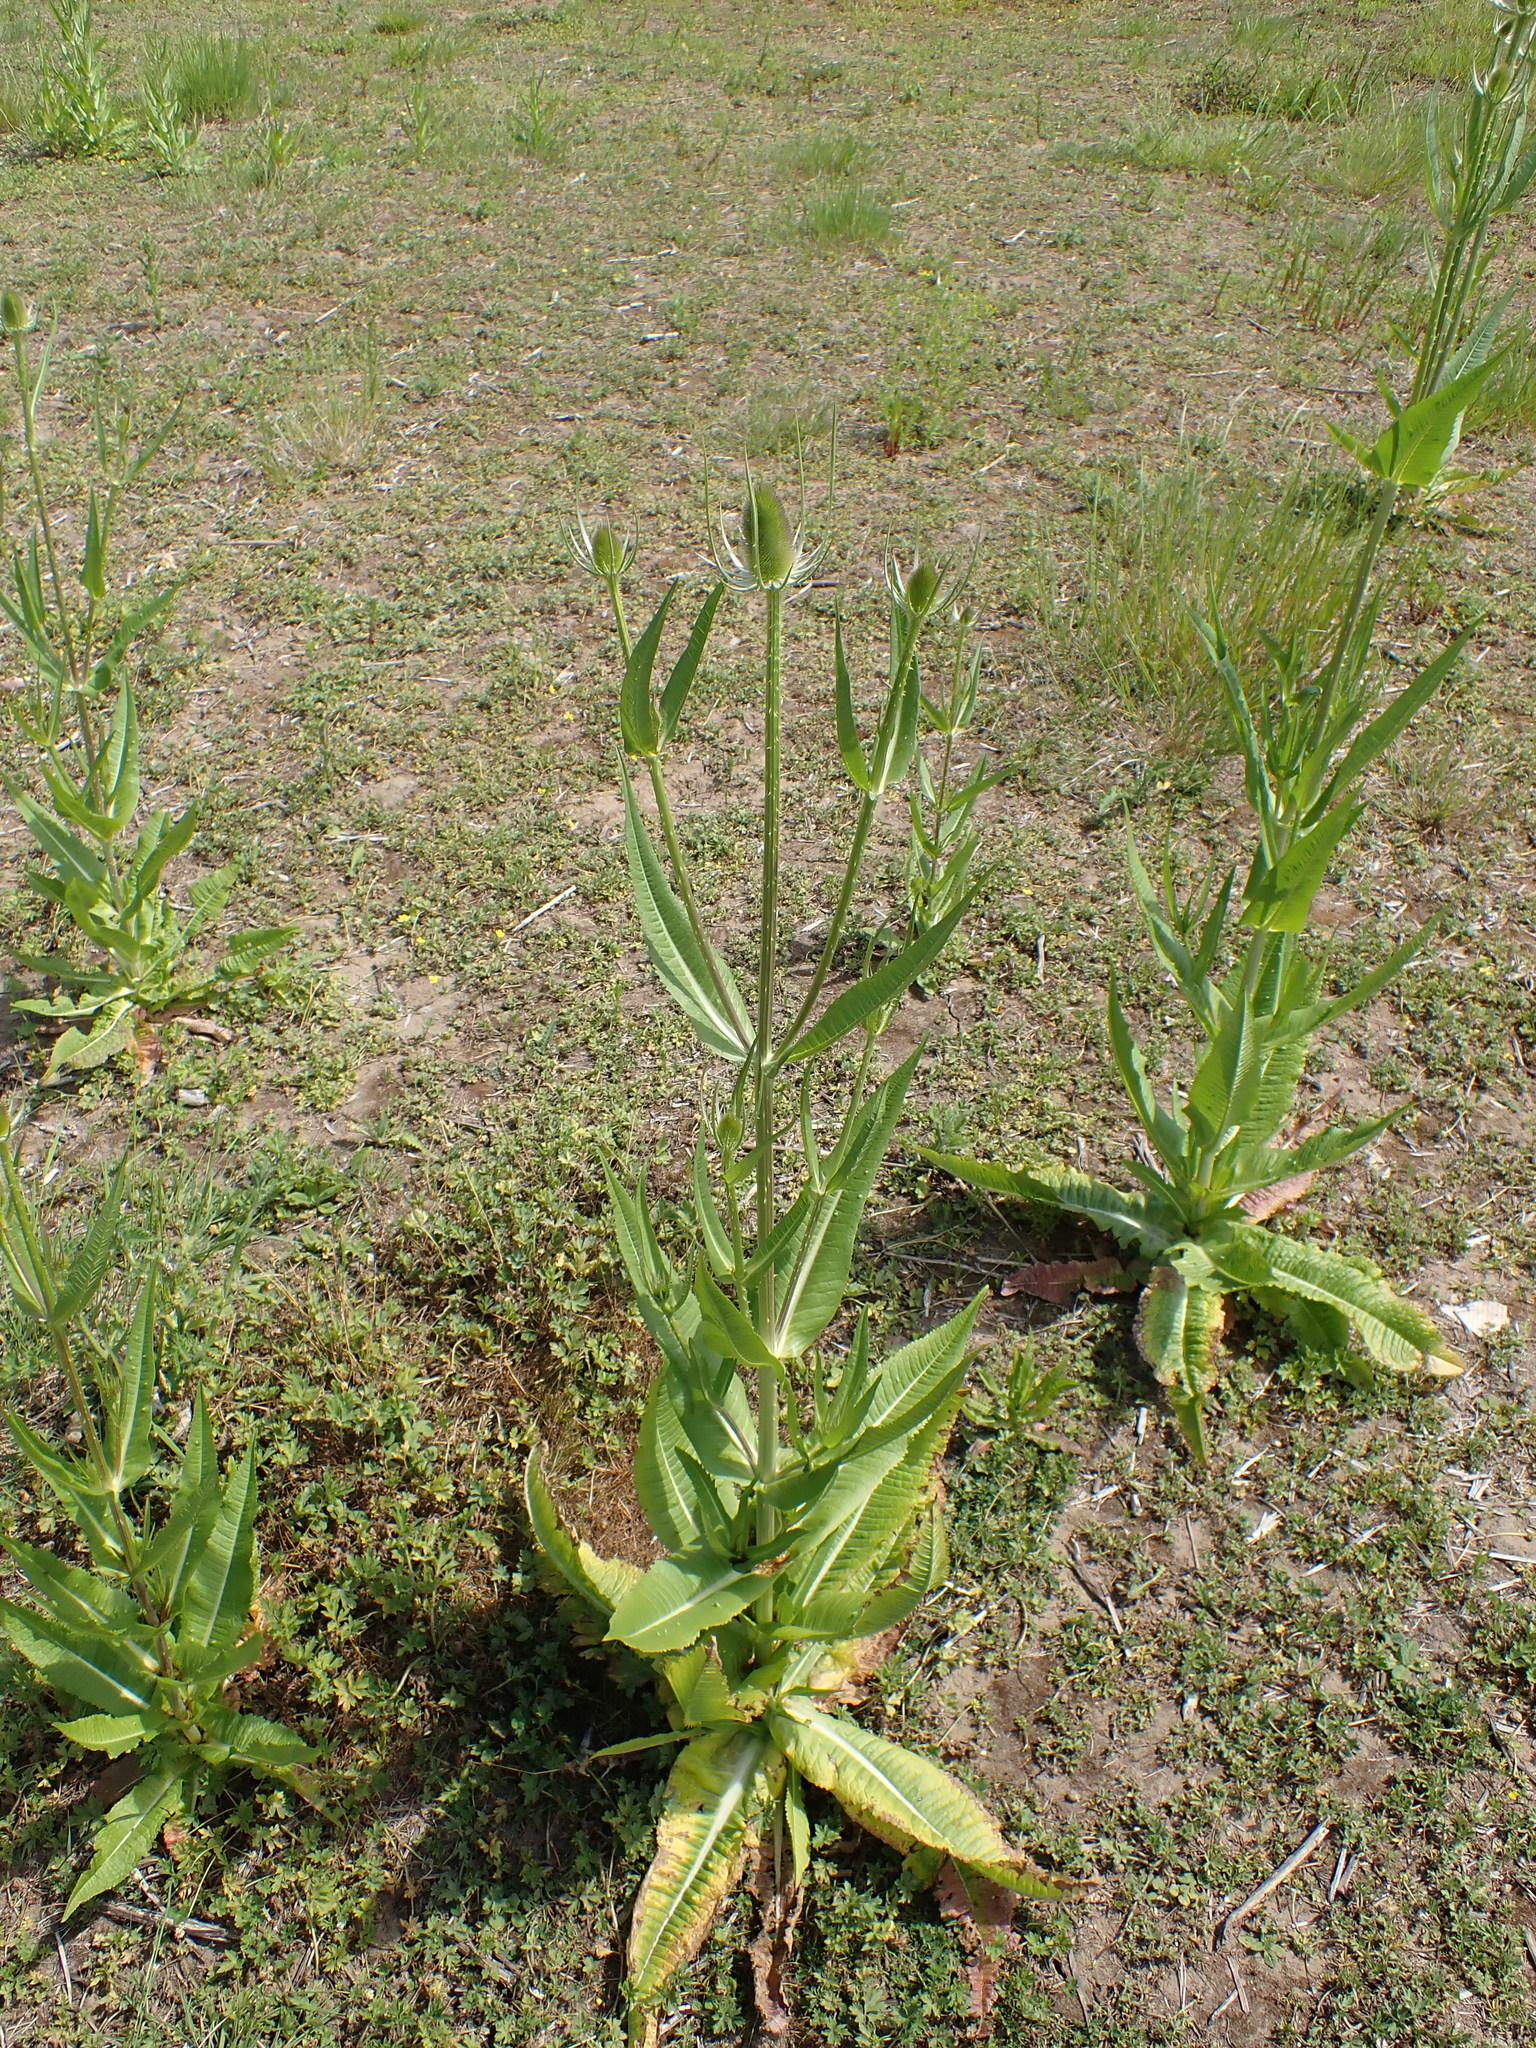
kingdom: Plantae
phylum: Tracheophyta
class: Magnoliopsida
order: Dipsacales
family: Caprifoliaceae
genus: Dipsacus
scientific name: Dipsacus fullonum
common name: Teasel
